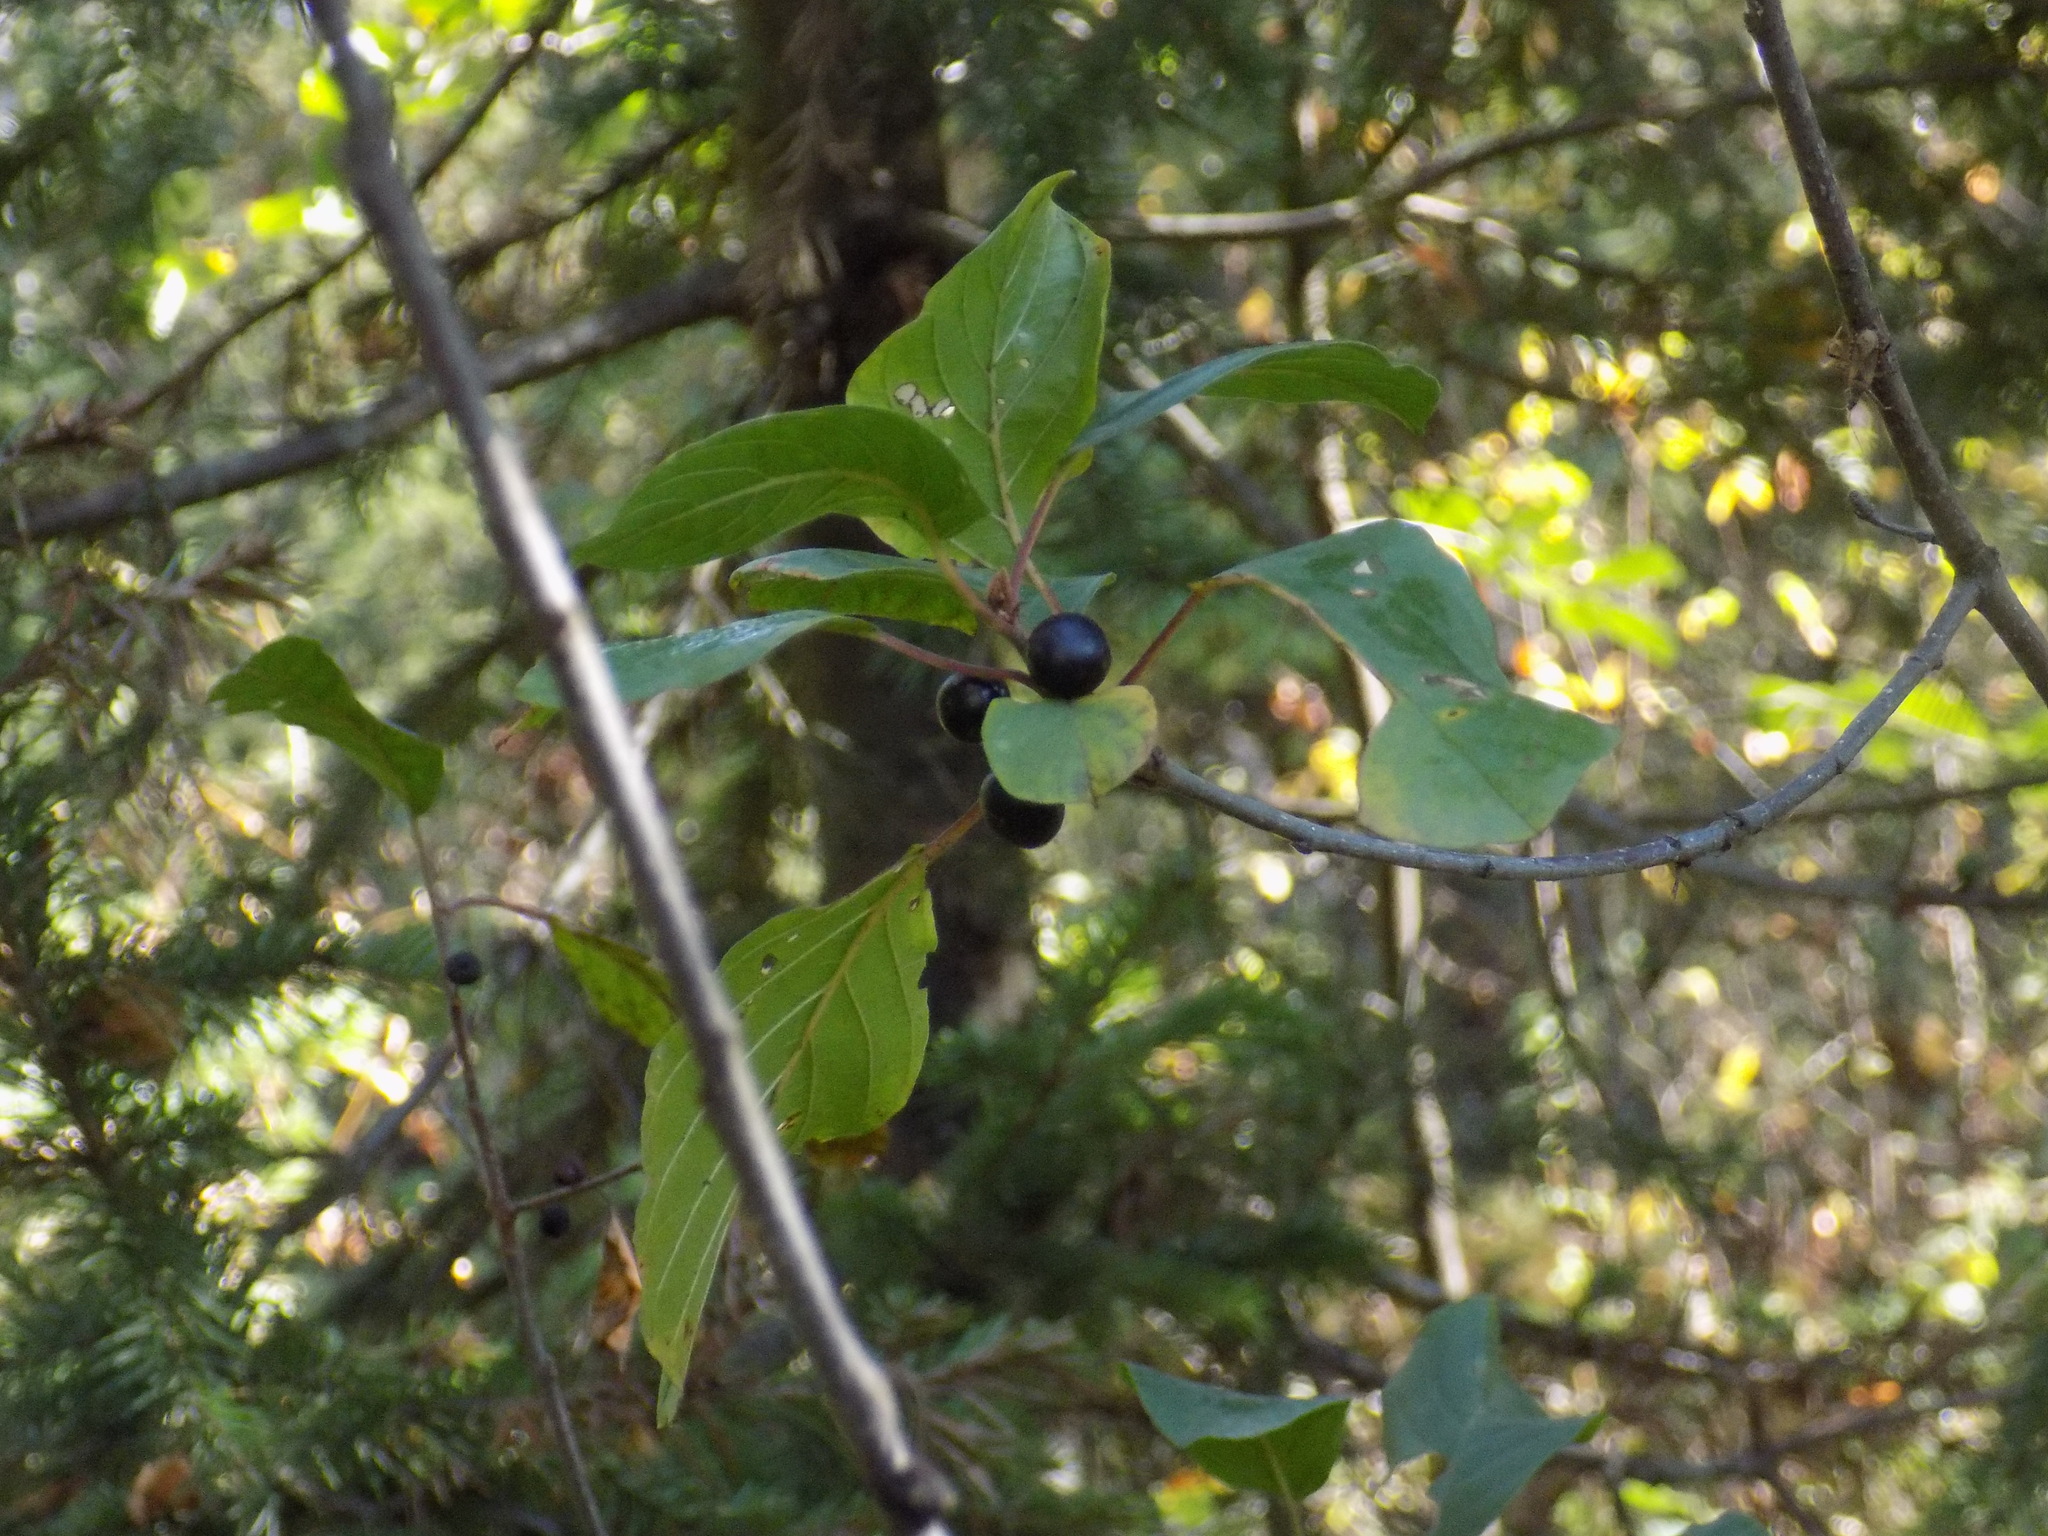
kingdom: Plantae
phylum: Tracheophyta
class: Magnoliopsida
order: Rosales
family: Rhamnaceae
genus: Frangula
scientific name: Frangula alnus
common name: Alder buckthorn
